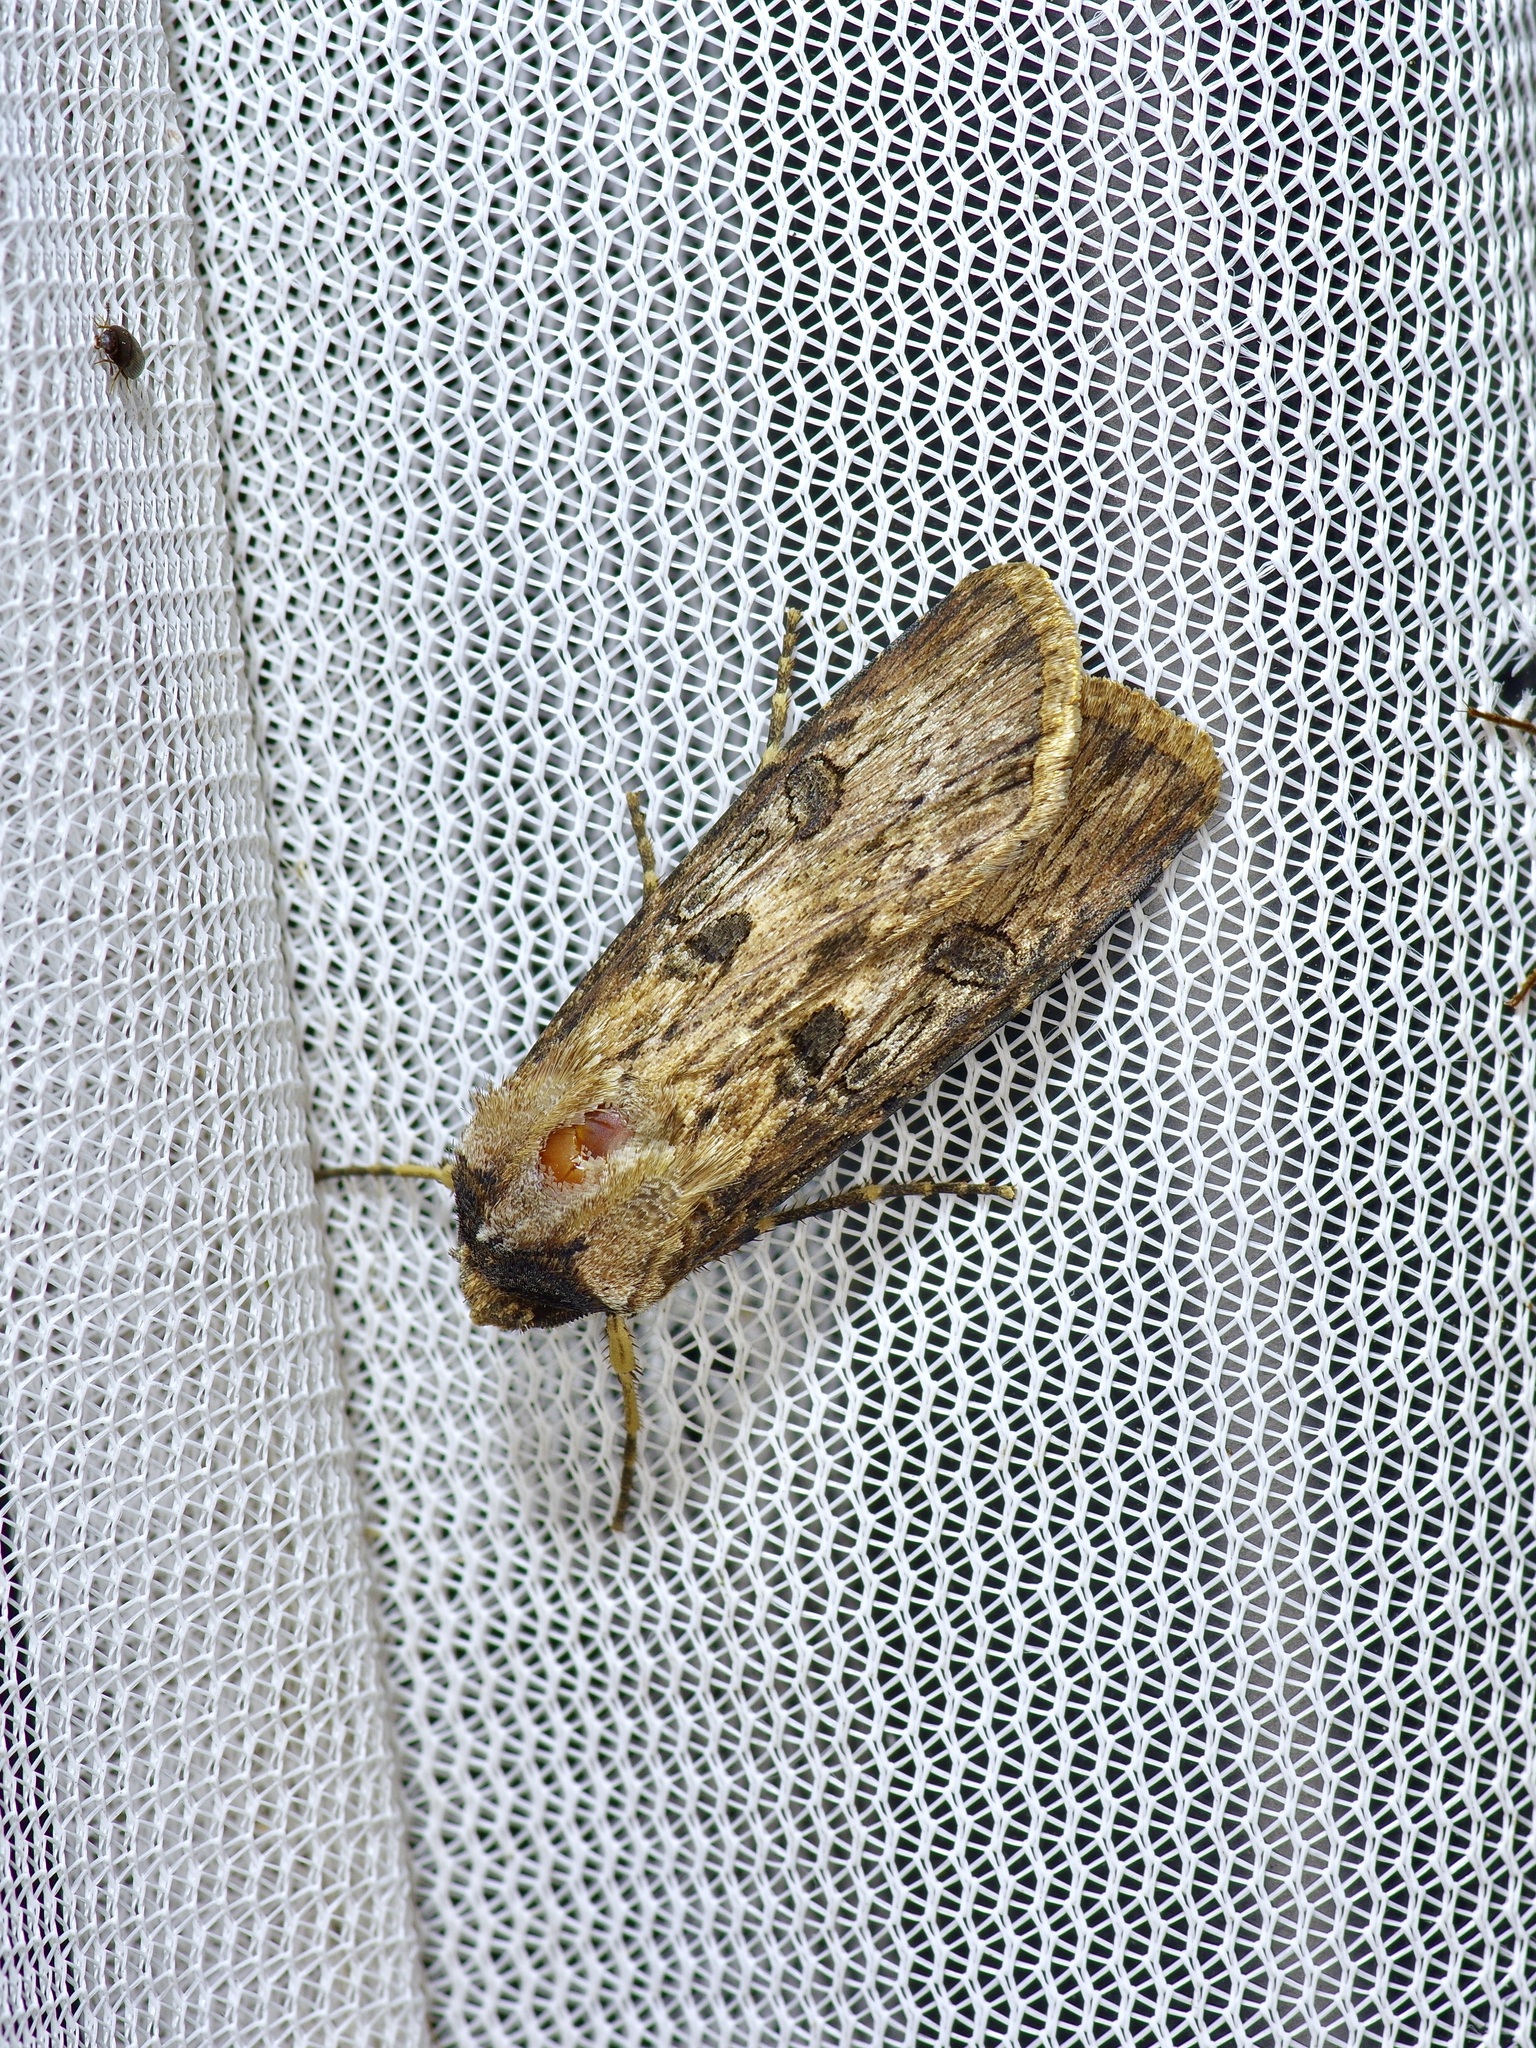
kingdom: Animalia
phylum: Arthropoda
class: Insecta
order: Lepidoptera
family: Noctuidae
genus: Agrotis
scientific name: Agrotis malefida
